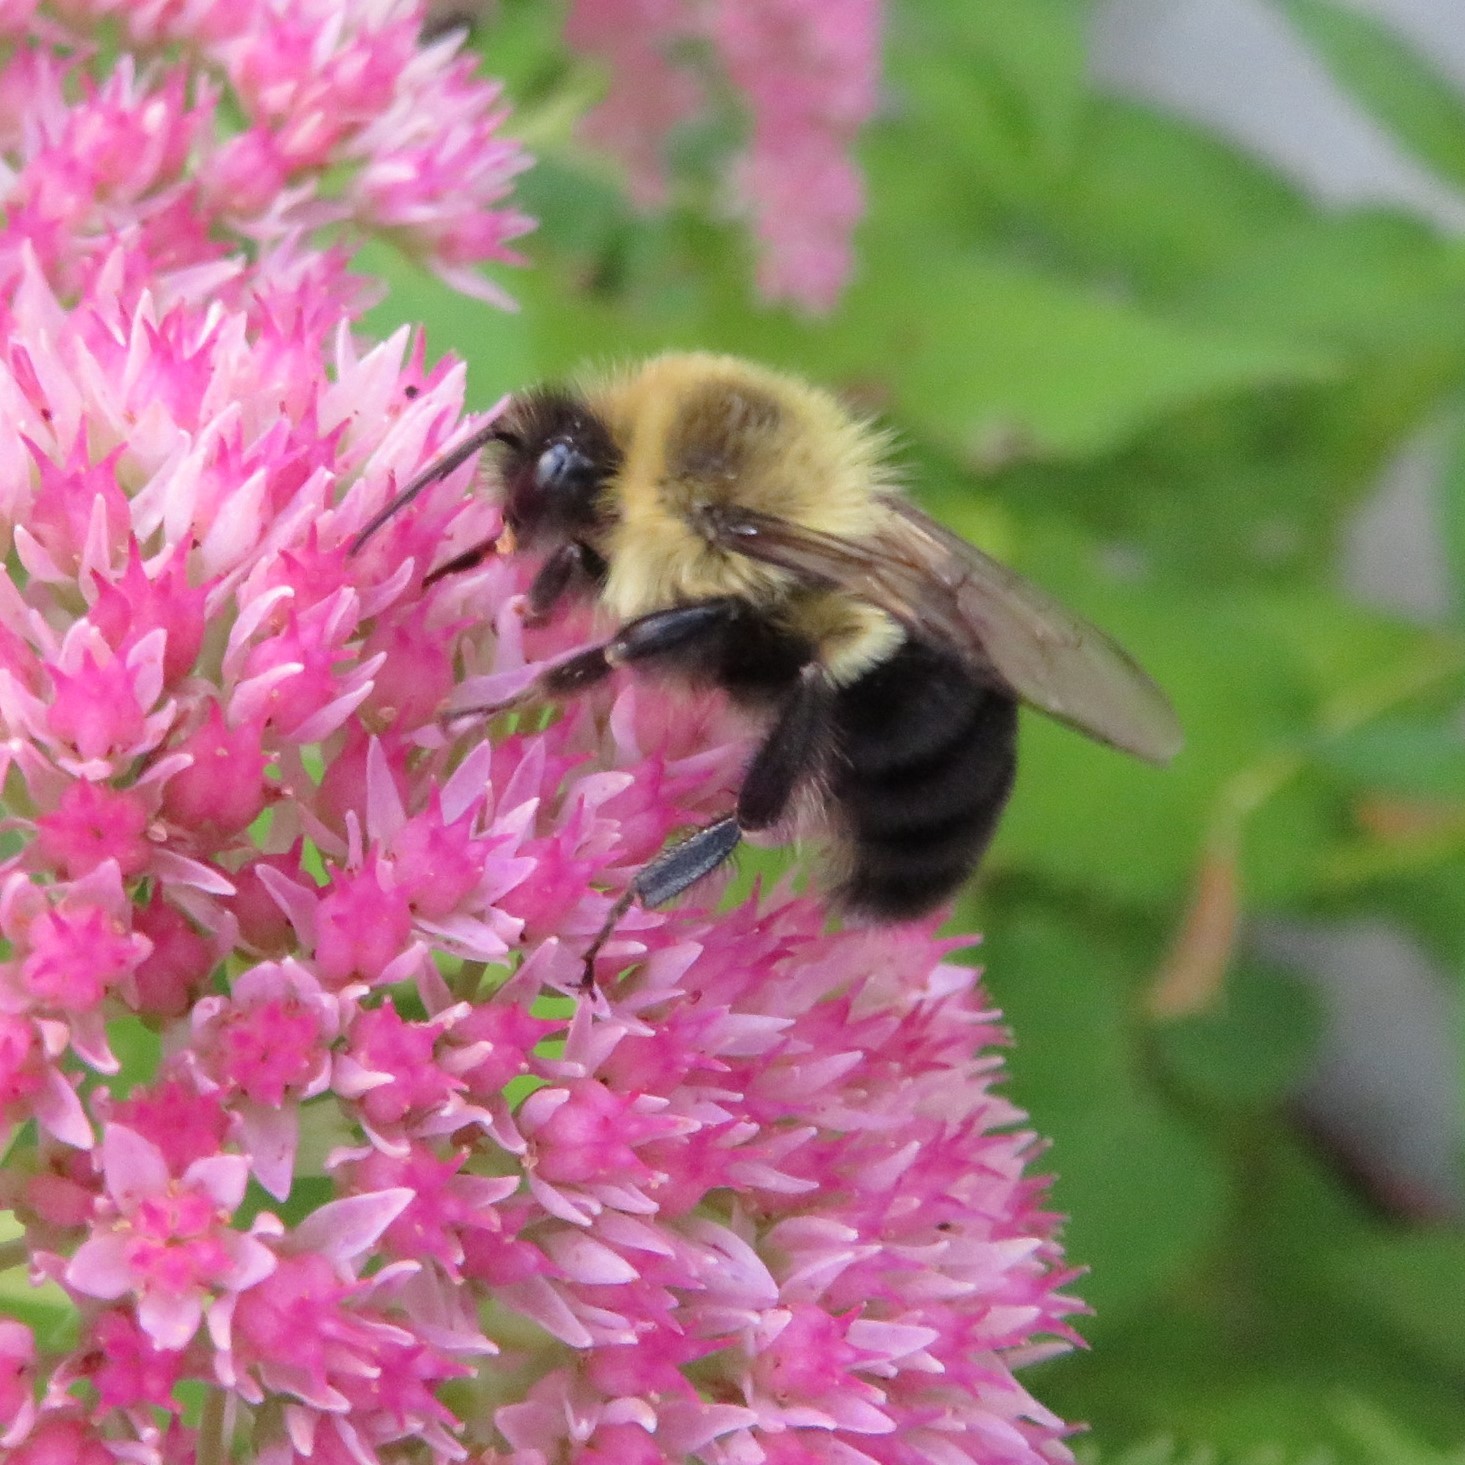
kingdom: Animalia
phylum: Arthropoda
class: Insecta
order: Hymenoptera
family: Apidae
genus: Bombus
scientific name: Bombus impatiens
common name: Common eastern bumble bee
